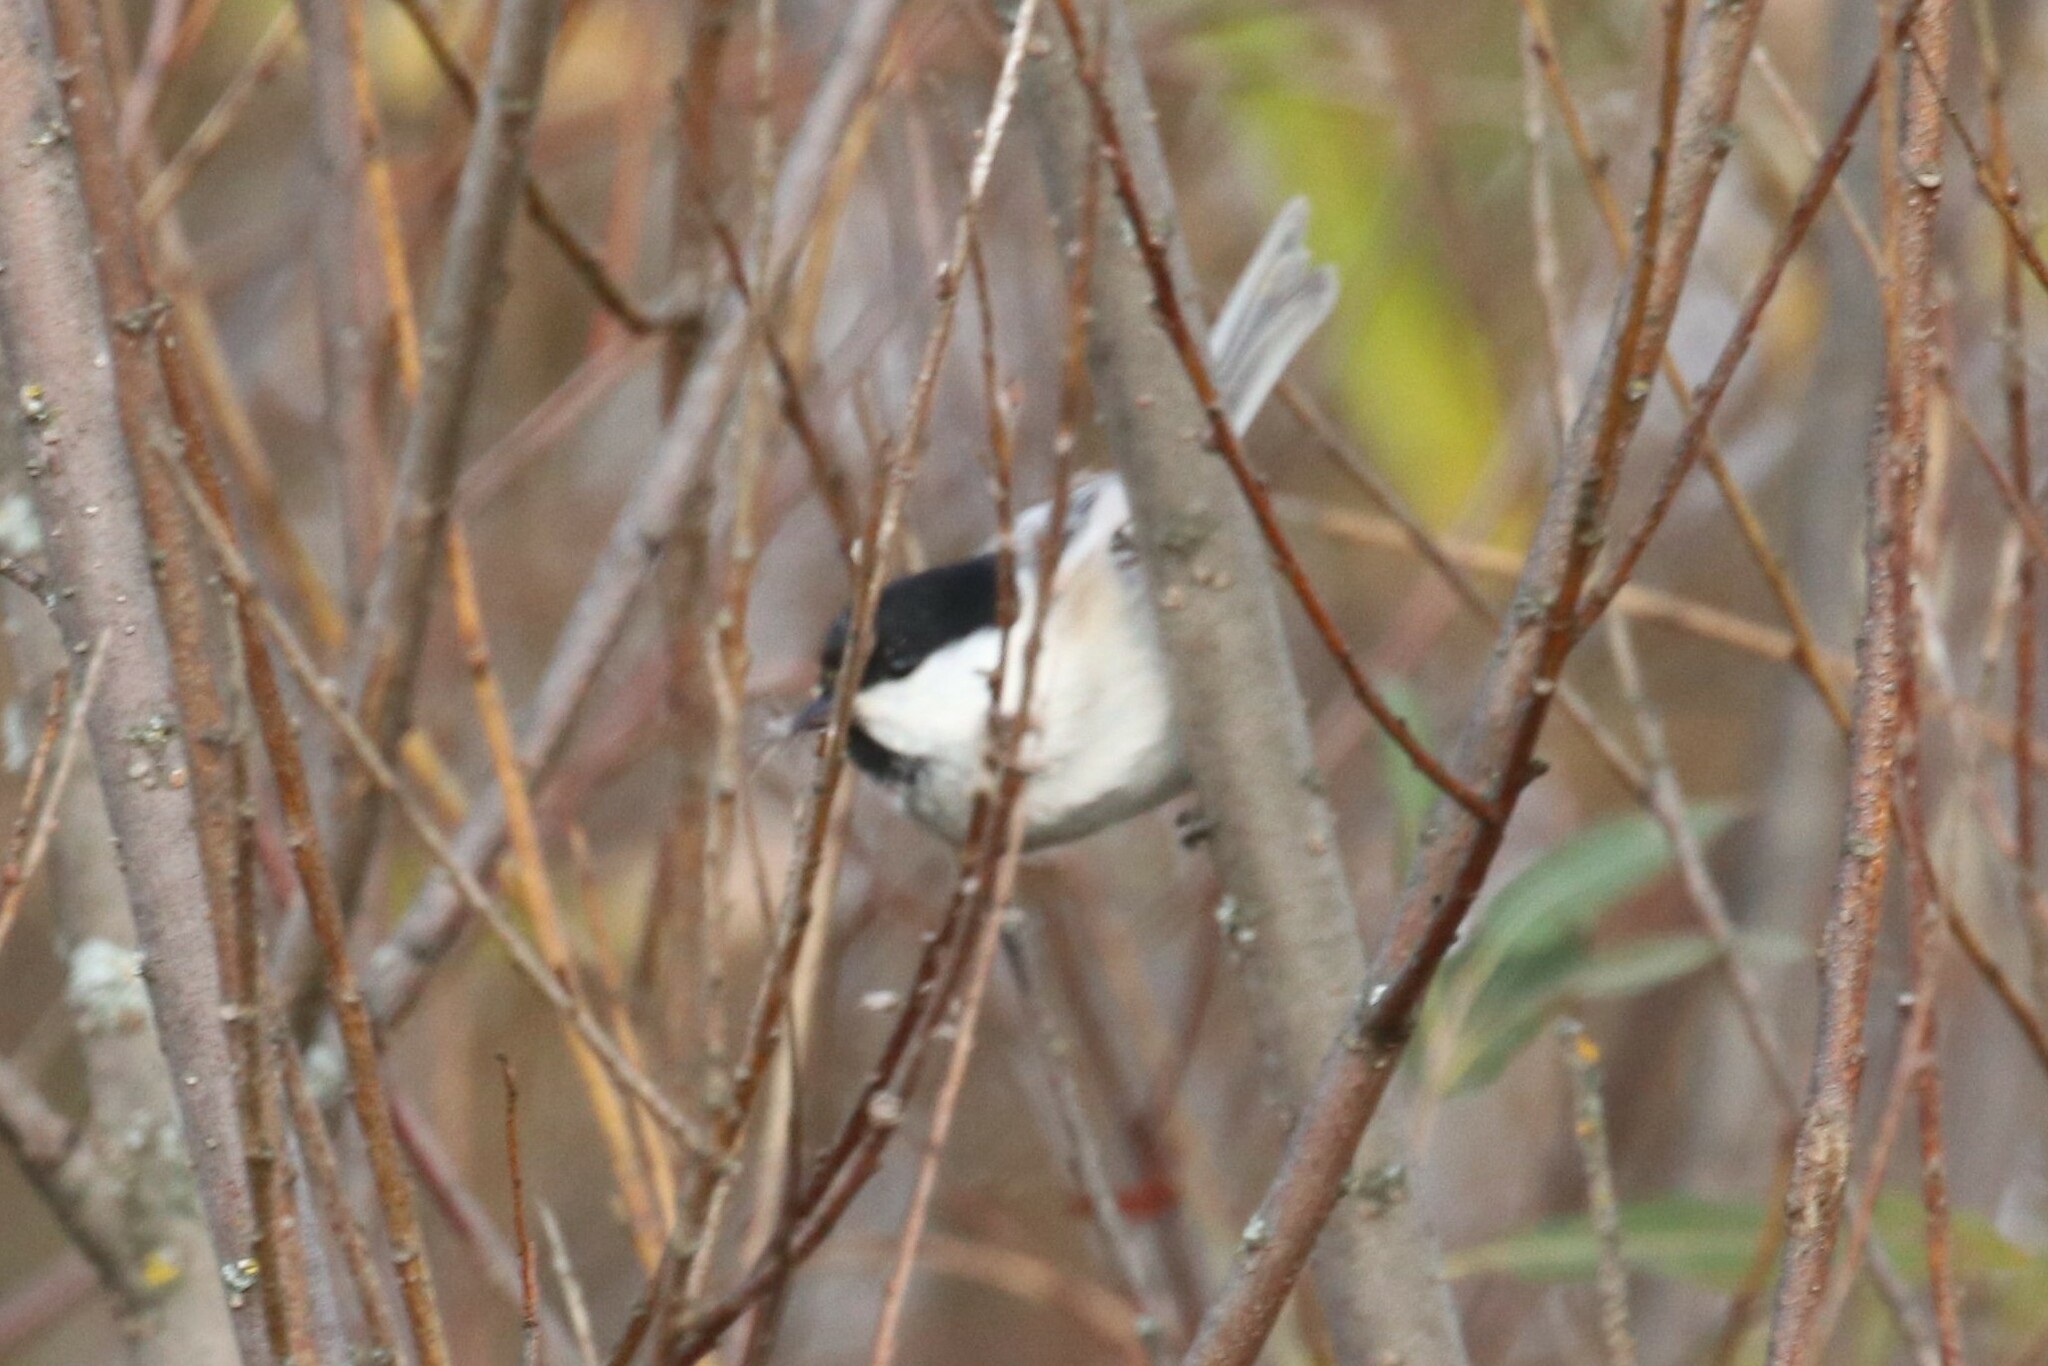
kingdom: Animalia
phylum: Chordata
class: Aves
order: Passeriformes
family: Paridae
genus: Poecile
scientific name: Poecile montanus
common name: Willow tit
